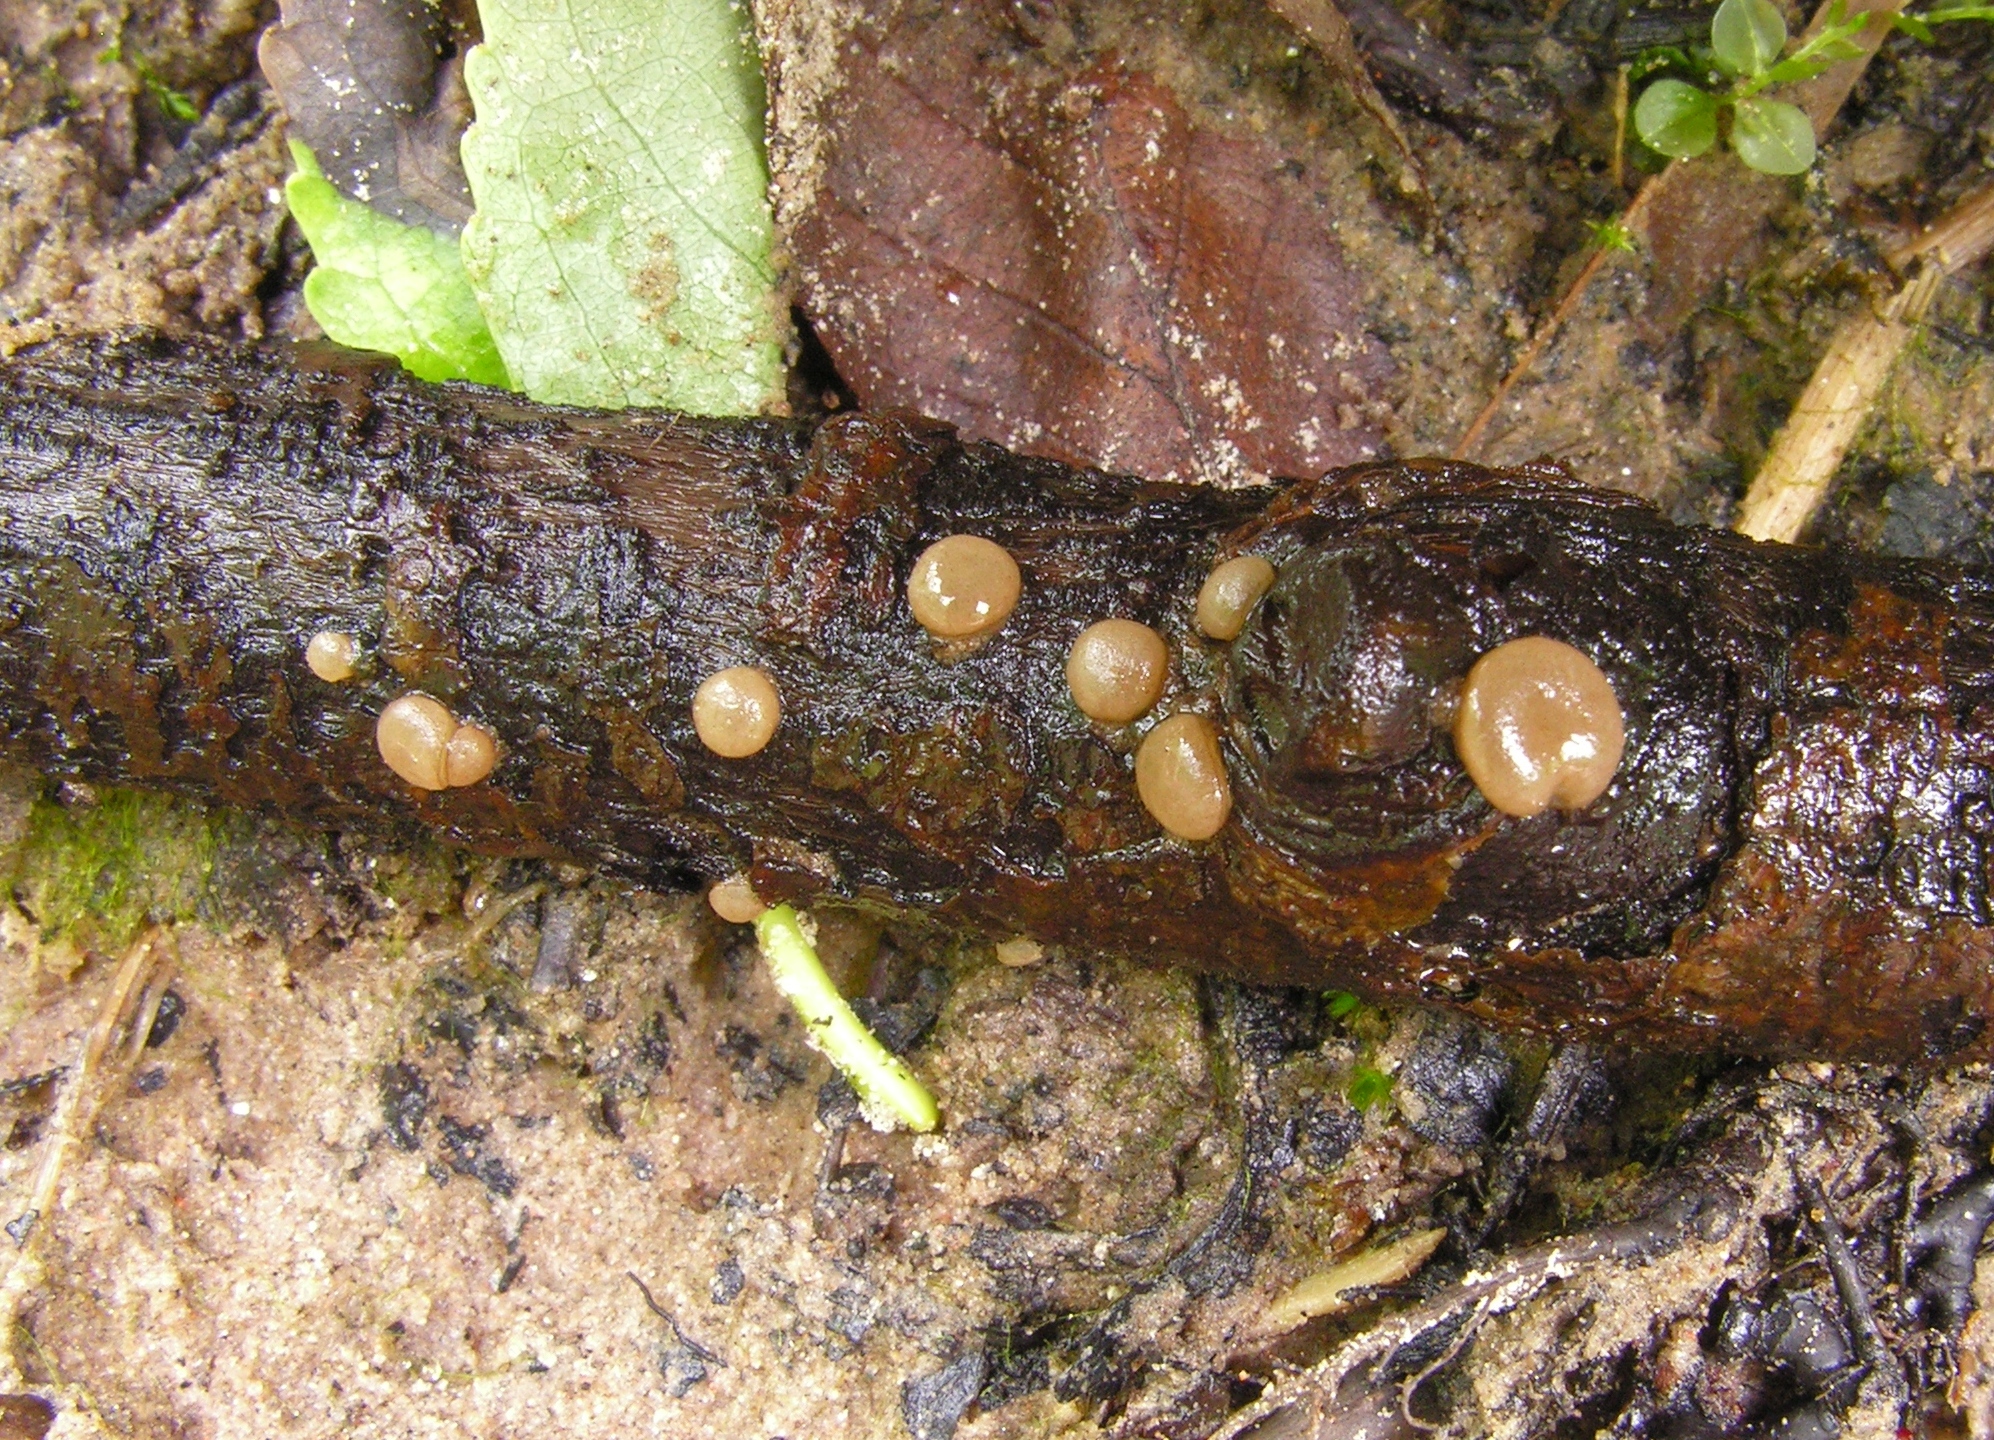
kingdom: Fungi
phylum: Ascomycota
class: Pezizomycetes
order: Pezizales
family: Pezizaceae
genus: Adelphella
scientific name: Adelphella babingtonii
